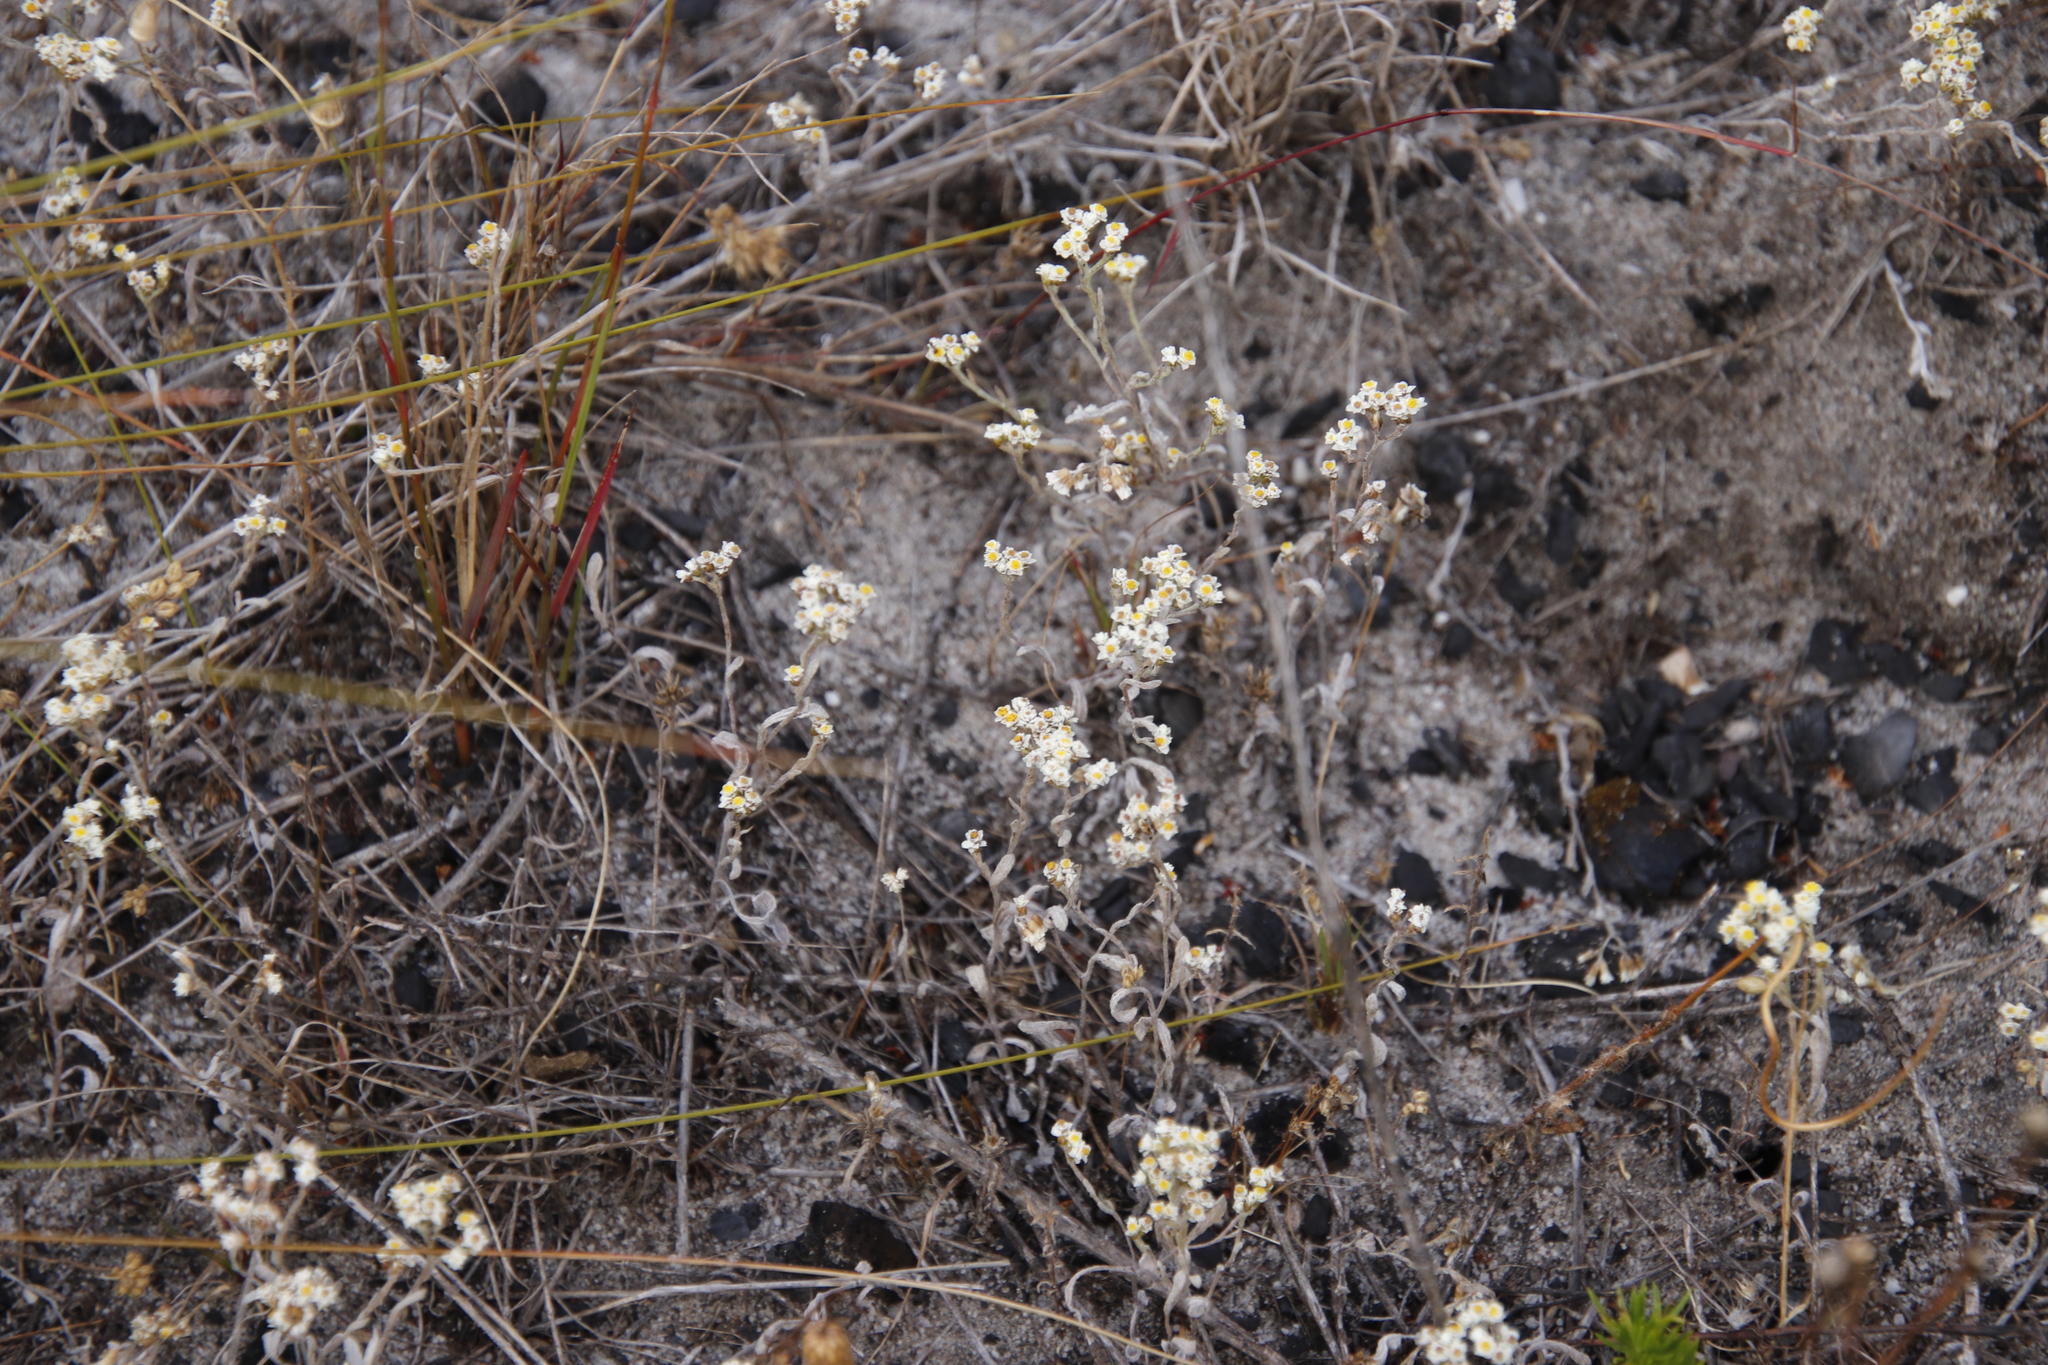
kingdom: Plantae
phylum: Tracheophyta
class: Magnoliopsida
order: Asterales
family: Asteraceae
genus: Helichrysum
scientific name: Helichrysum indicum
